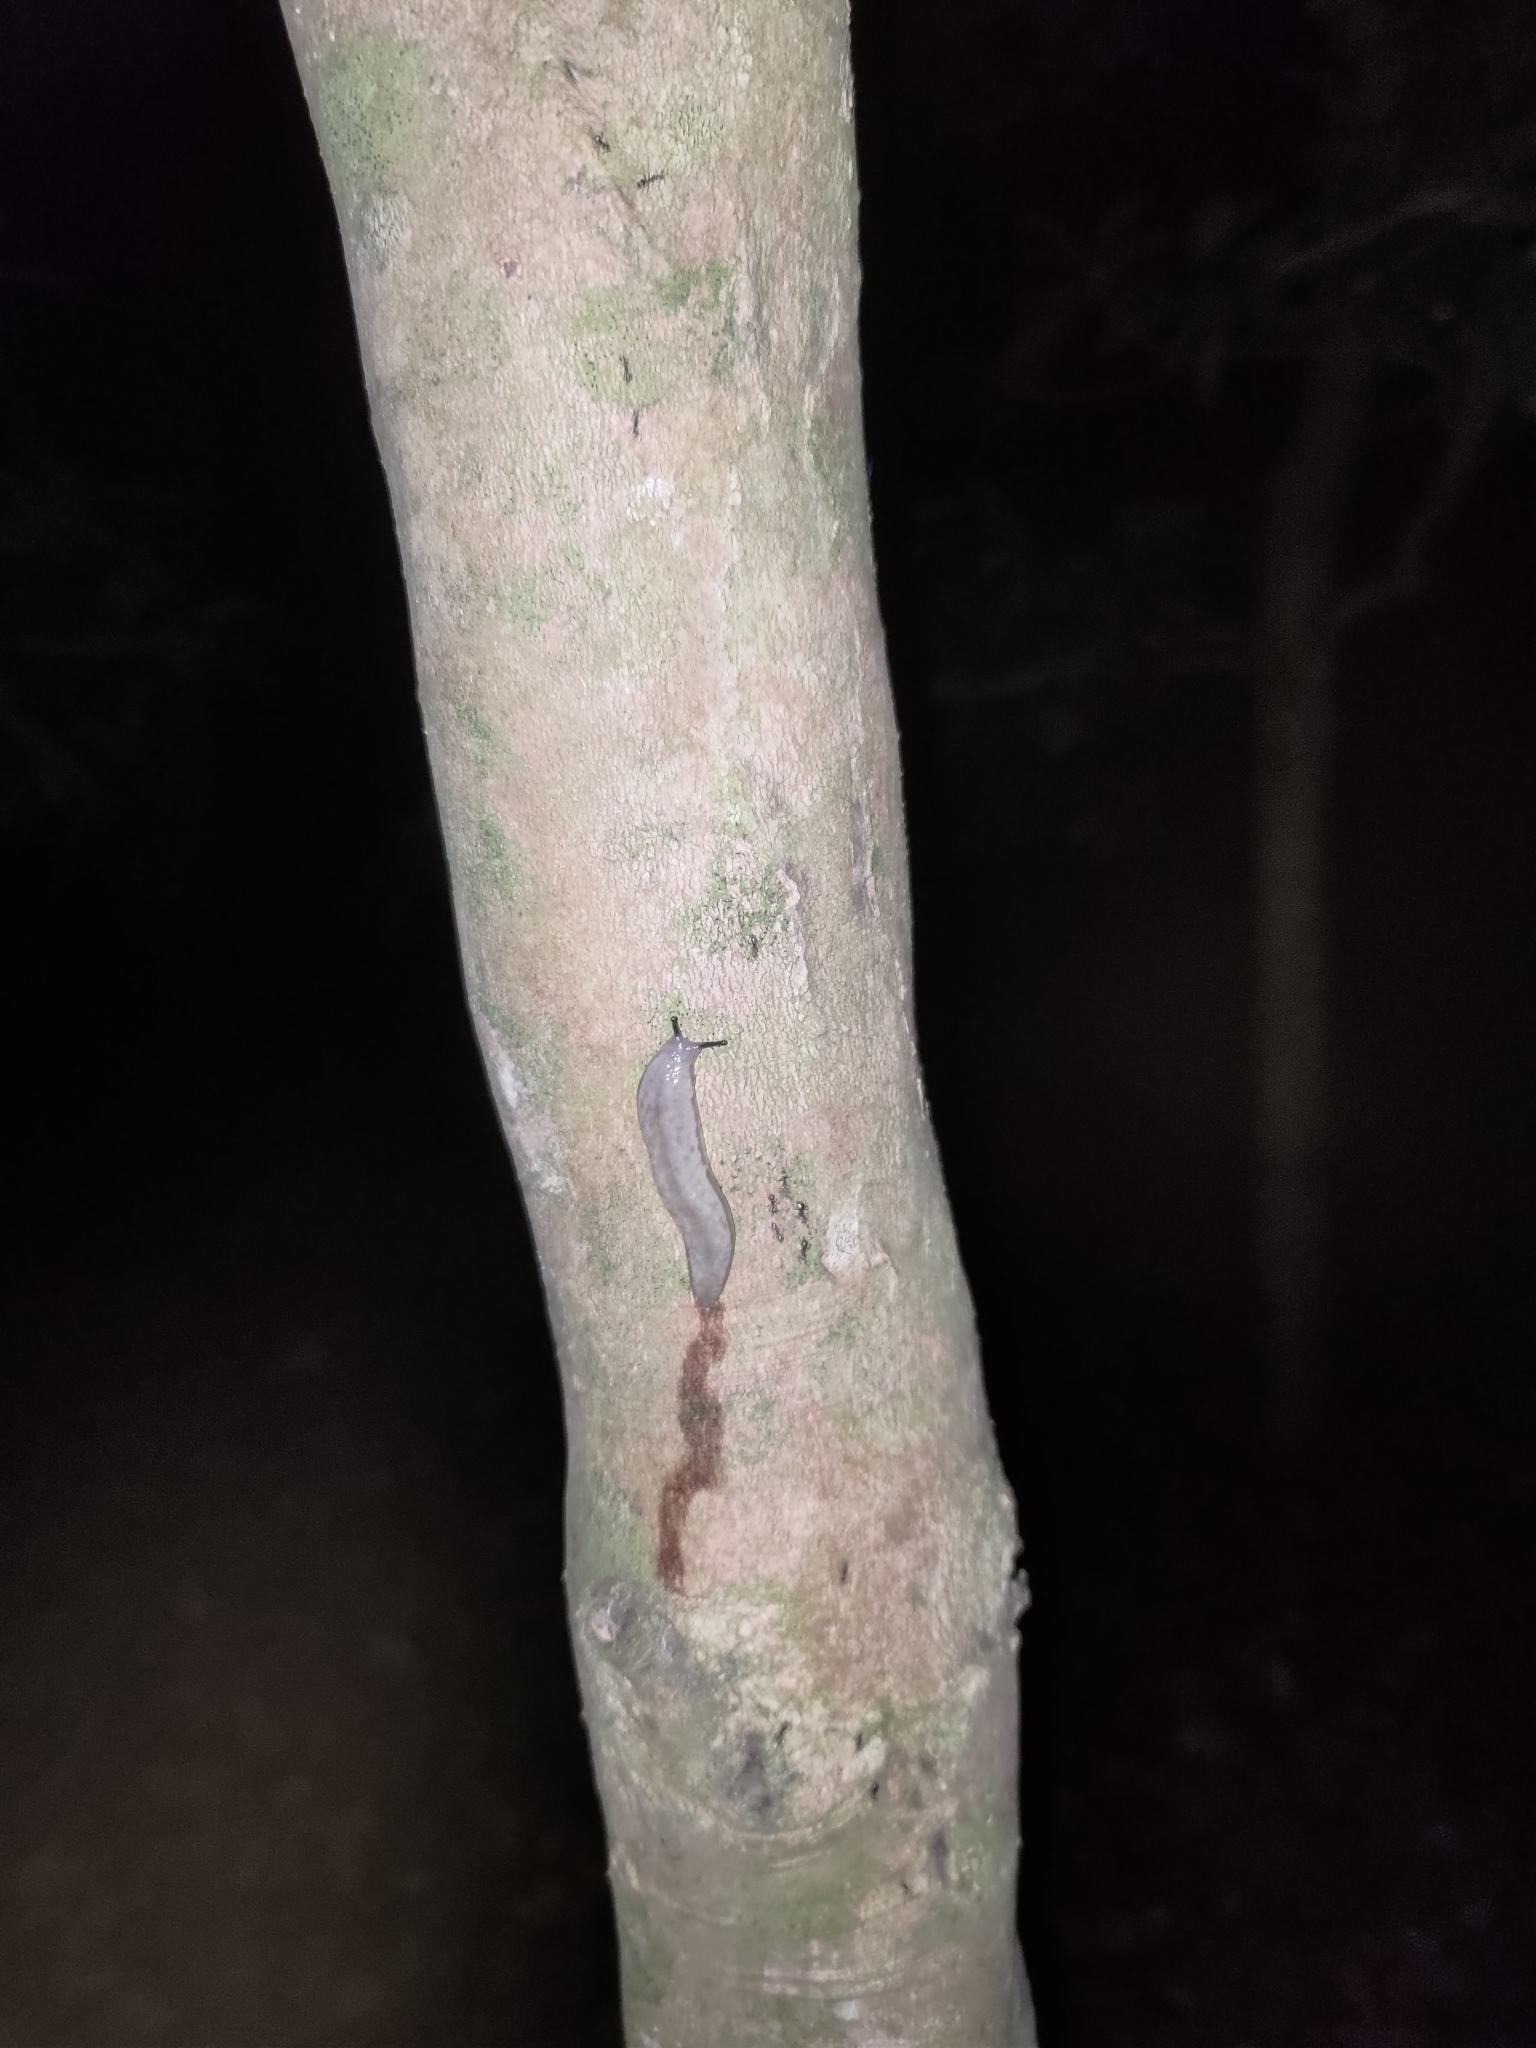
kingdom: Animalia
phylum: Mollusca
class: Gastropoda
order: Stylommatophora
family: Philomycidae
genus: Meghimatium
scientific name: Meghimatium bilineatum
